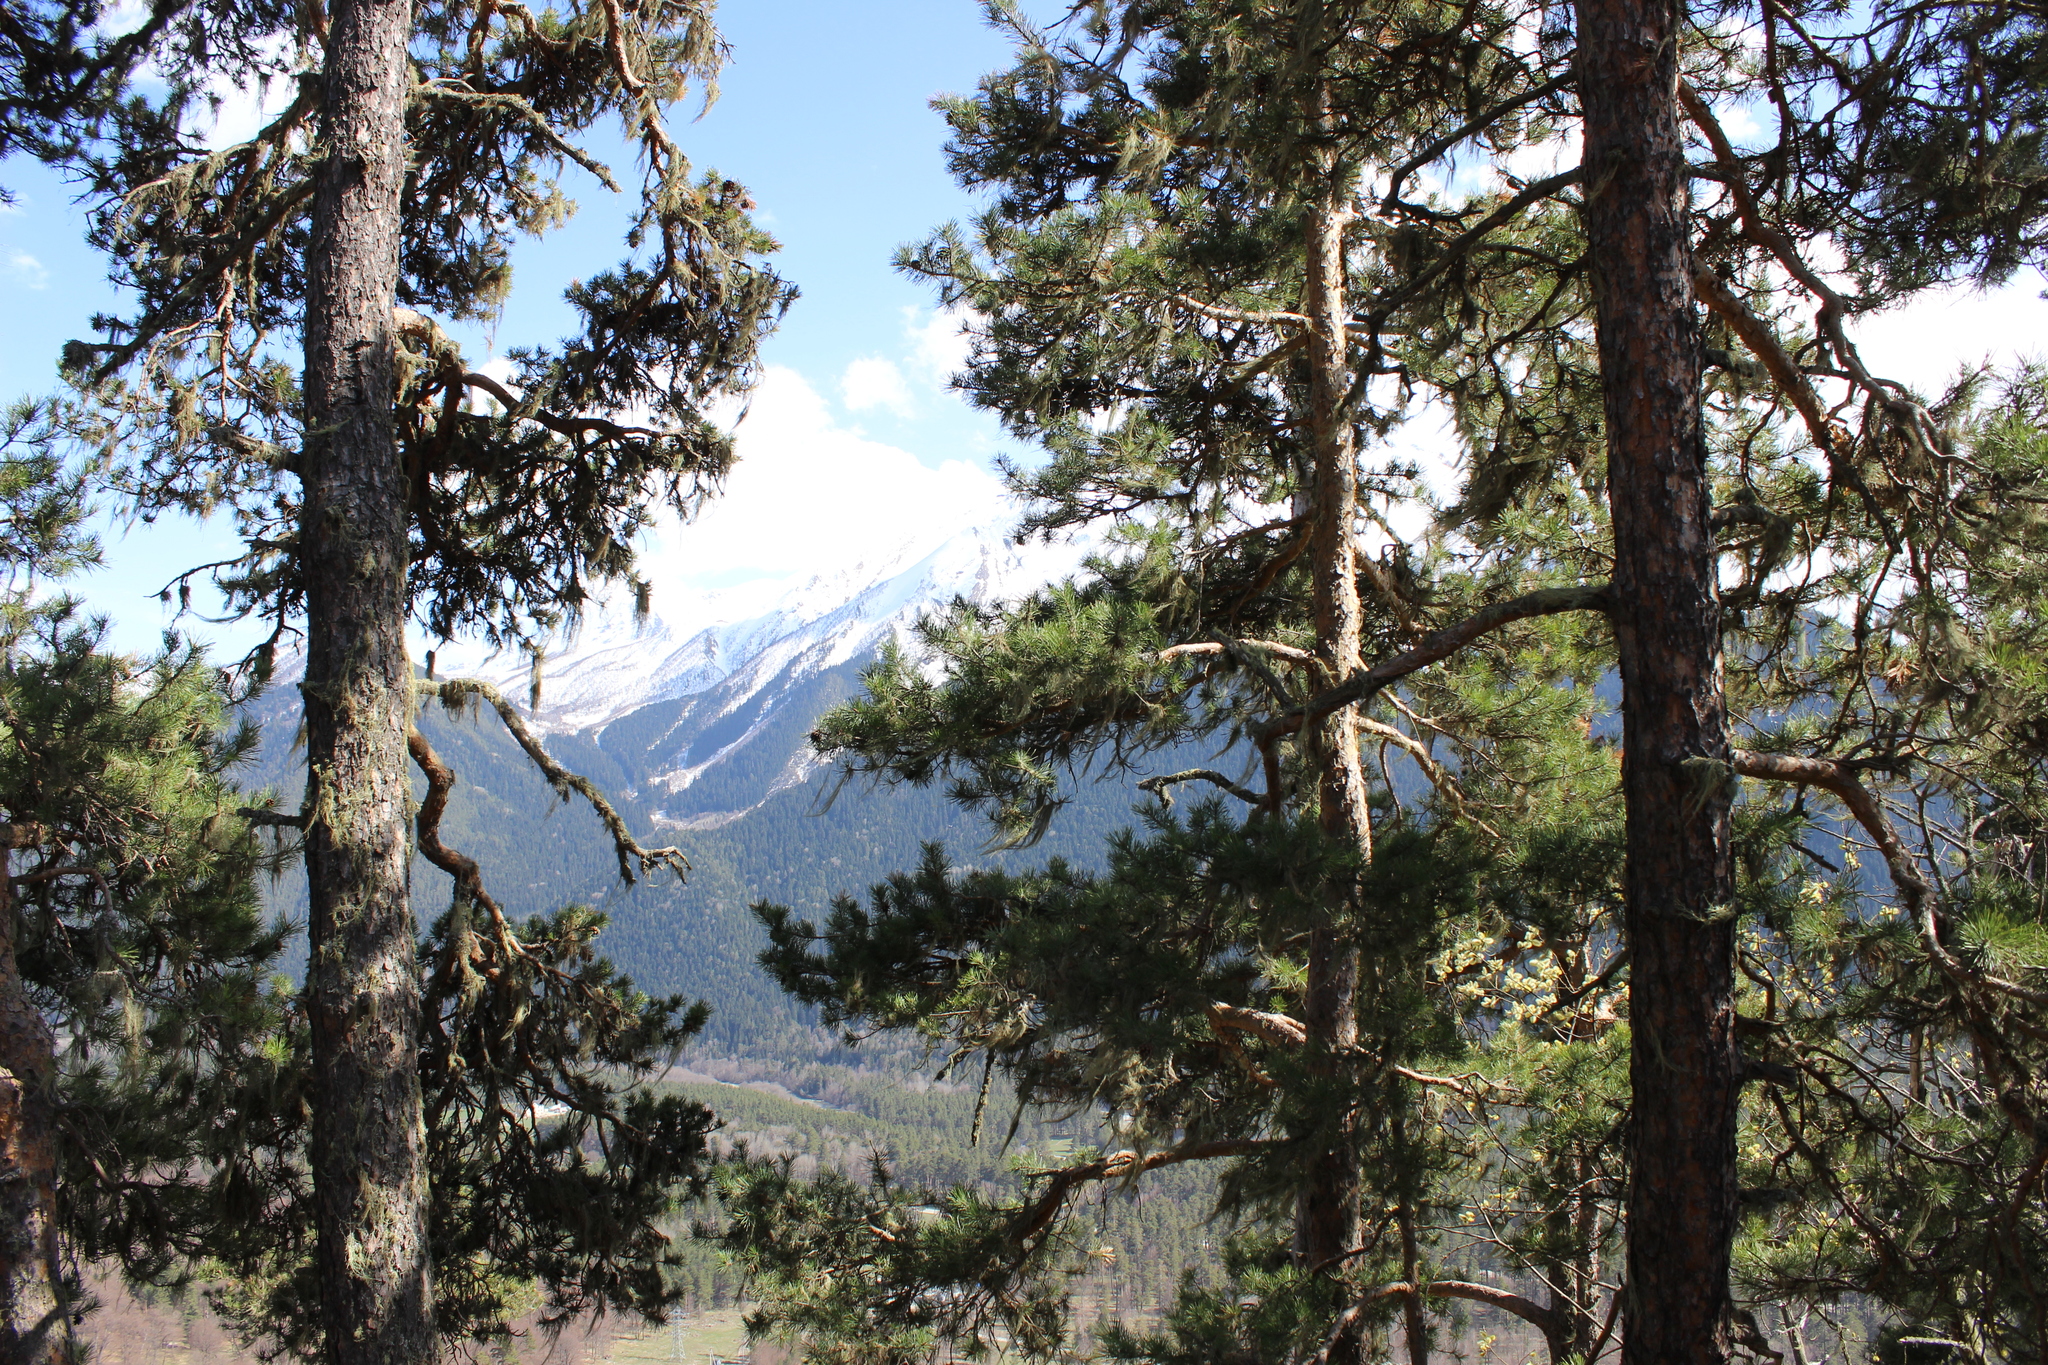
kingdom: Plantae
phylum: Tracheophyta
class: Pinopsida
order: Pinales
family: Pinaceae
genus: Pinus
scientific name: Pinus sylvestris
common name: Scots pine
